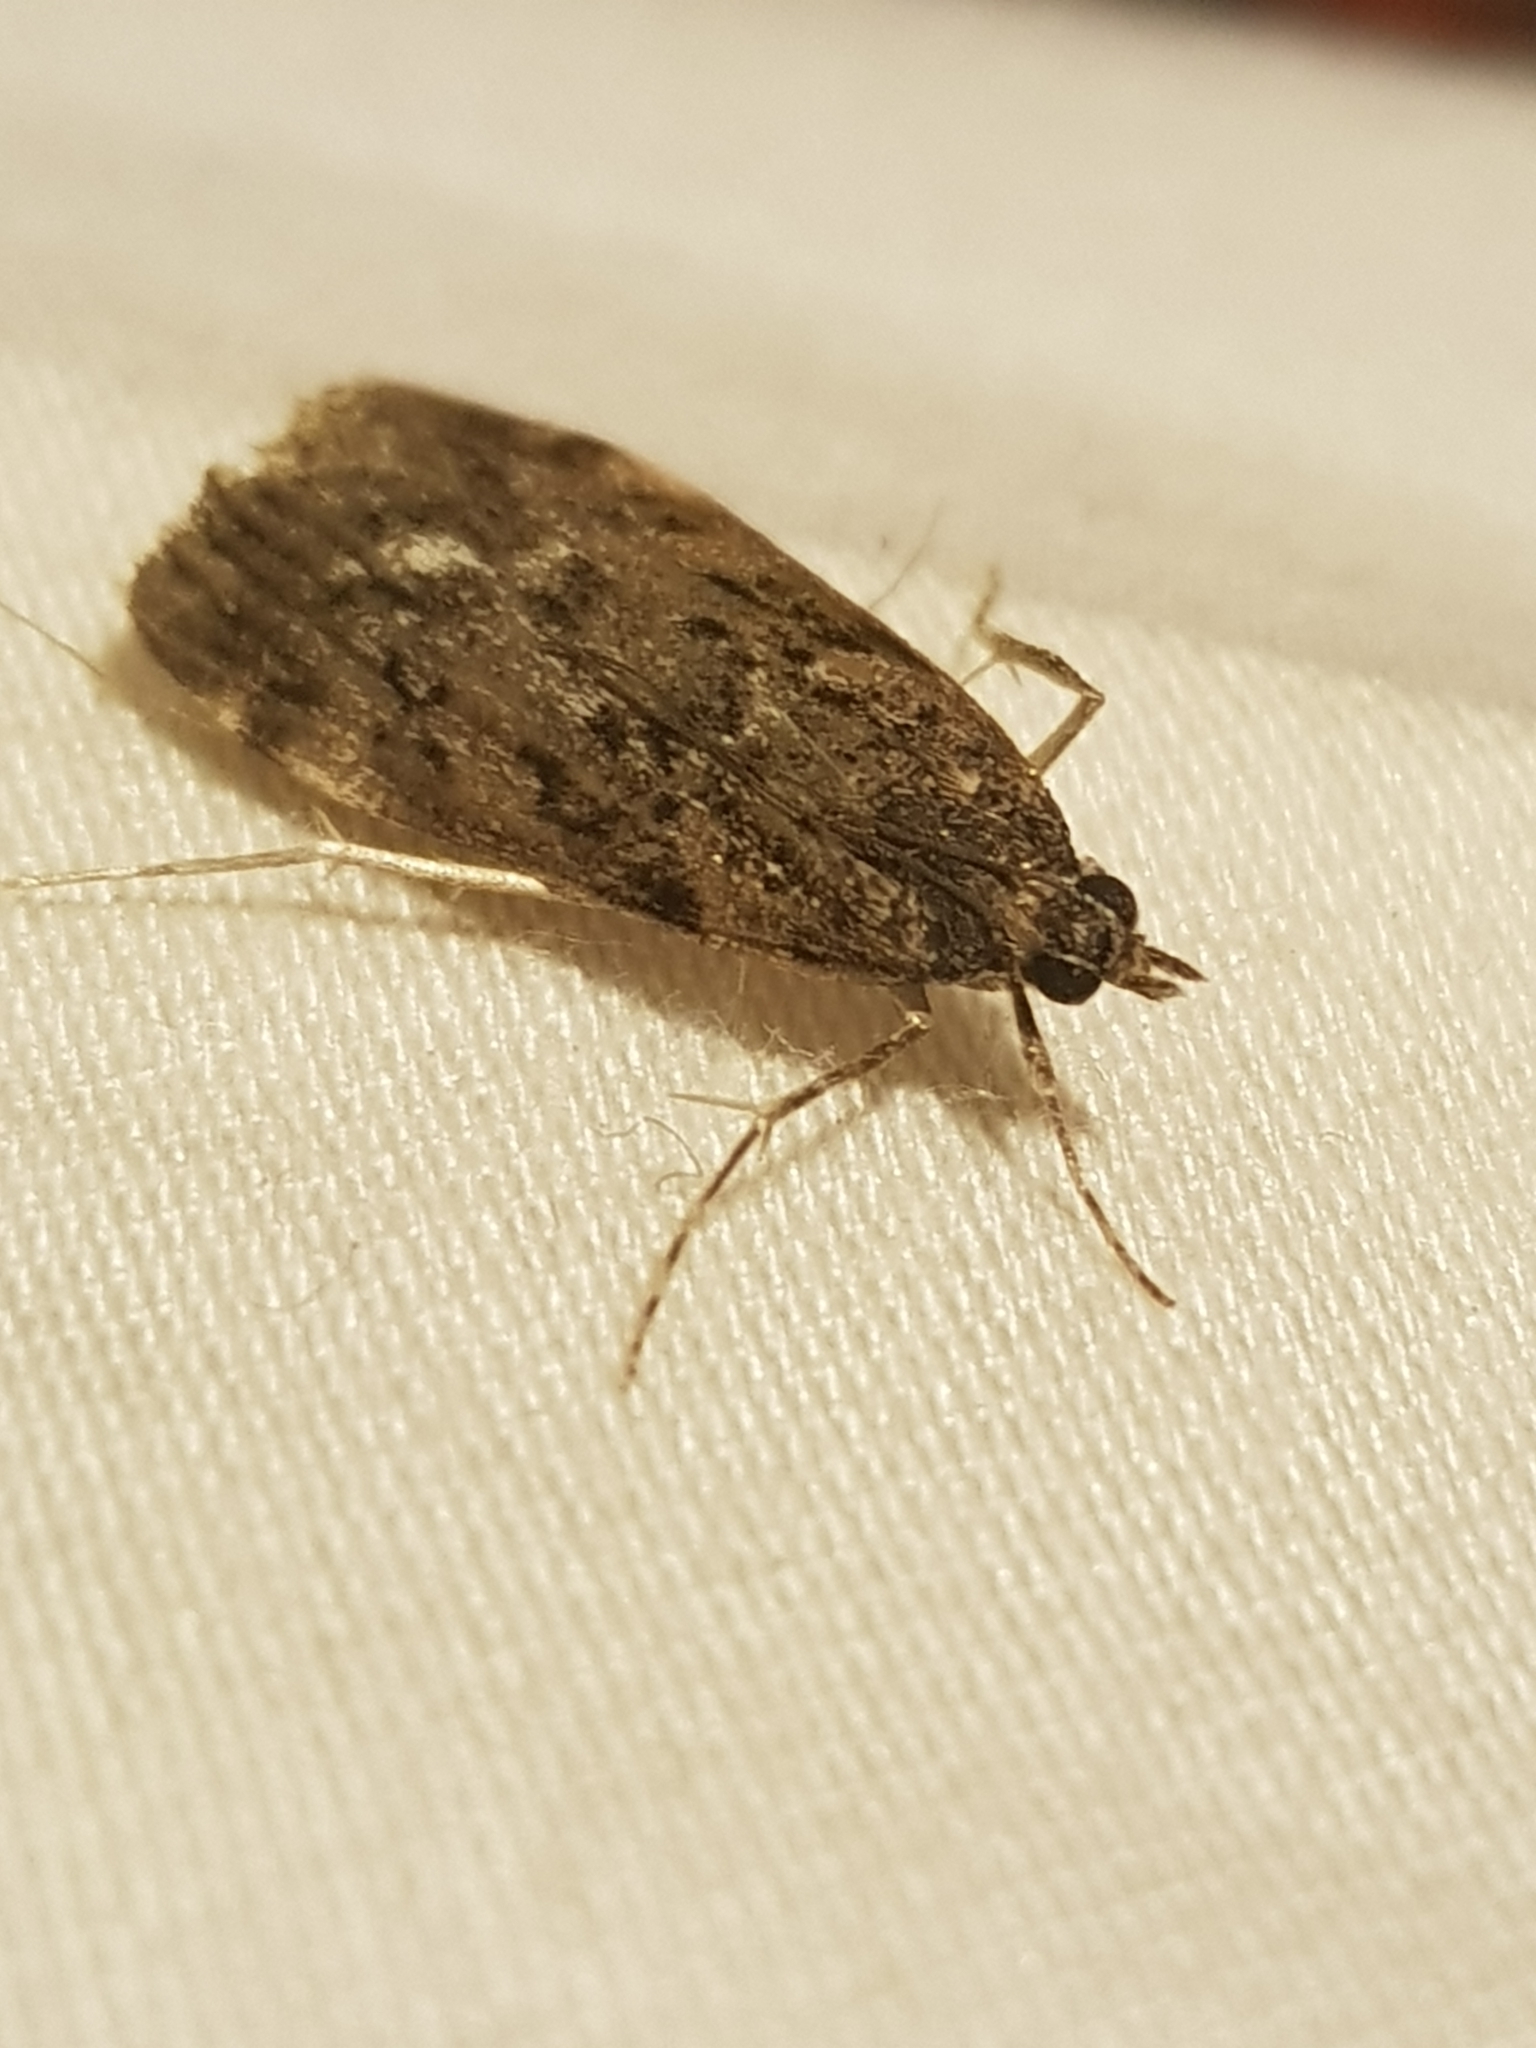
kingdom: Animalia
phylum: Arthropoda
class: Insecta
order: Lepidoptera
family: Crambidae
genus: Eudonia
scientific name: Eudonia submarginalis
